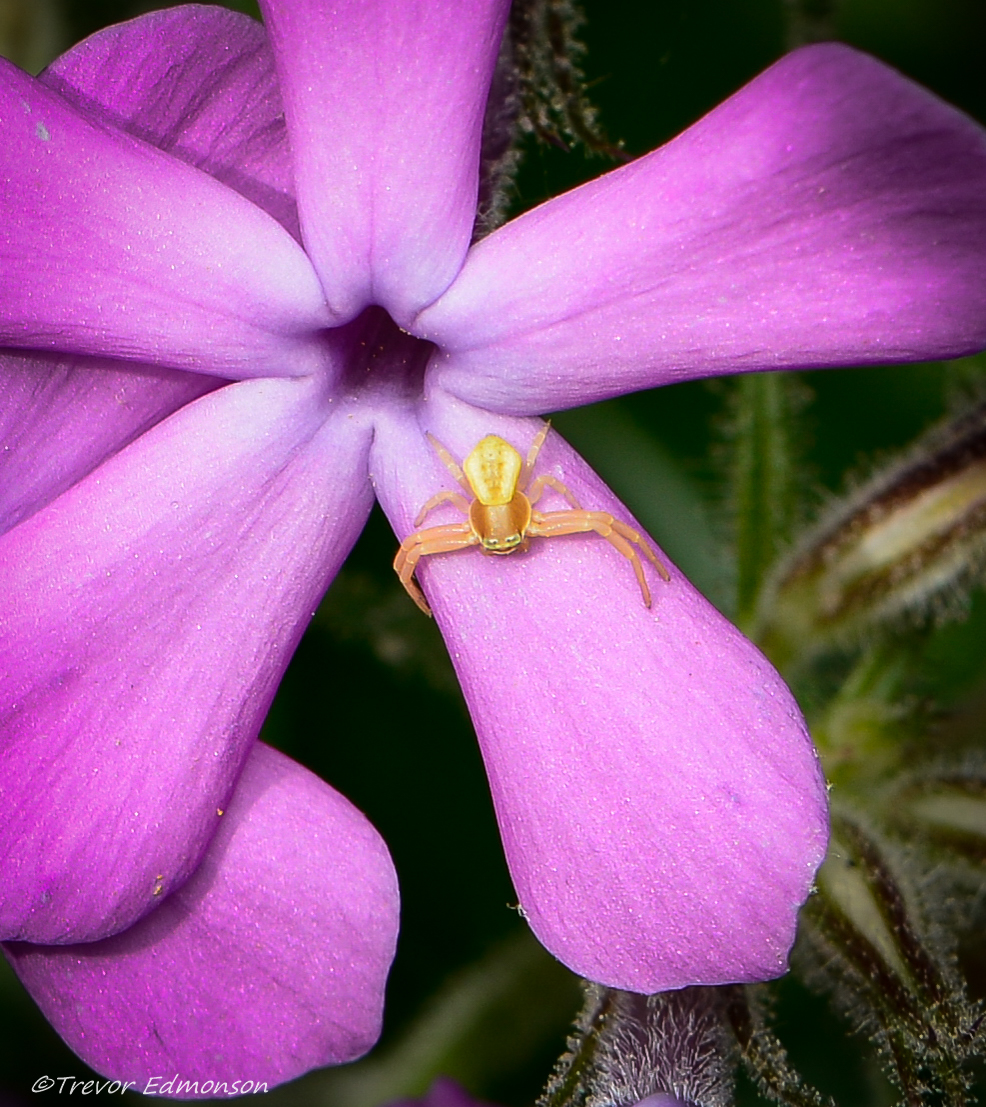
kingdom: Animalia
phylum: Arthropoda
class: Arachnida
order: Araneae
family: Thomisidae
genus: Misumenoides
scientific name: Misumenoides formosipes
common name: White-banded crab spider
